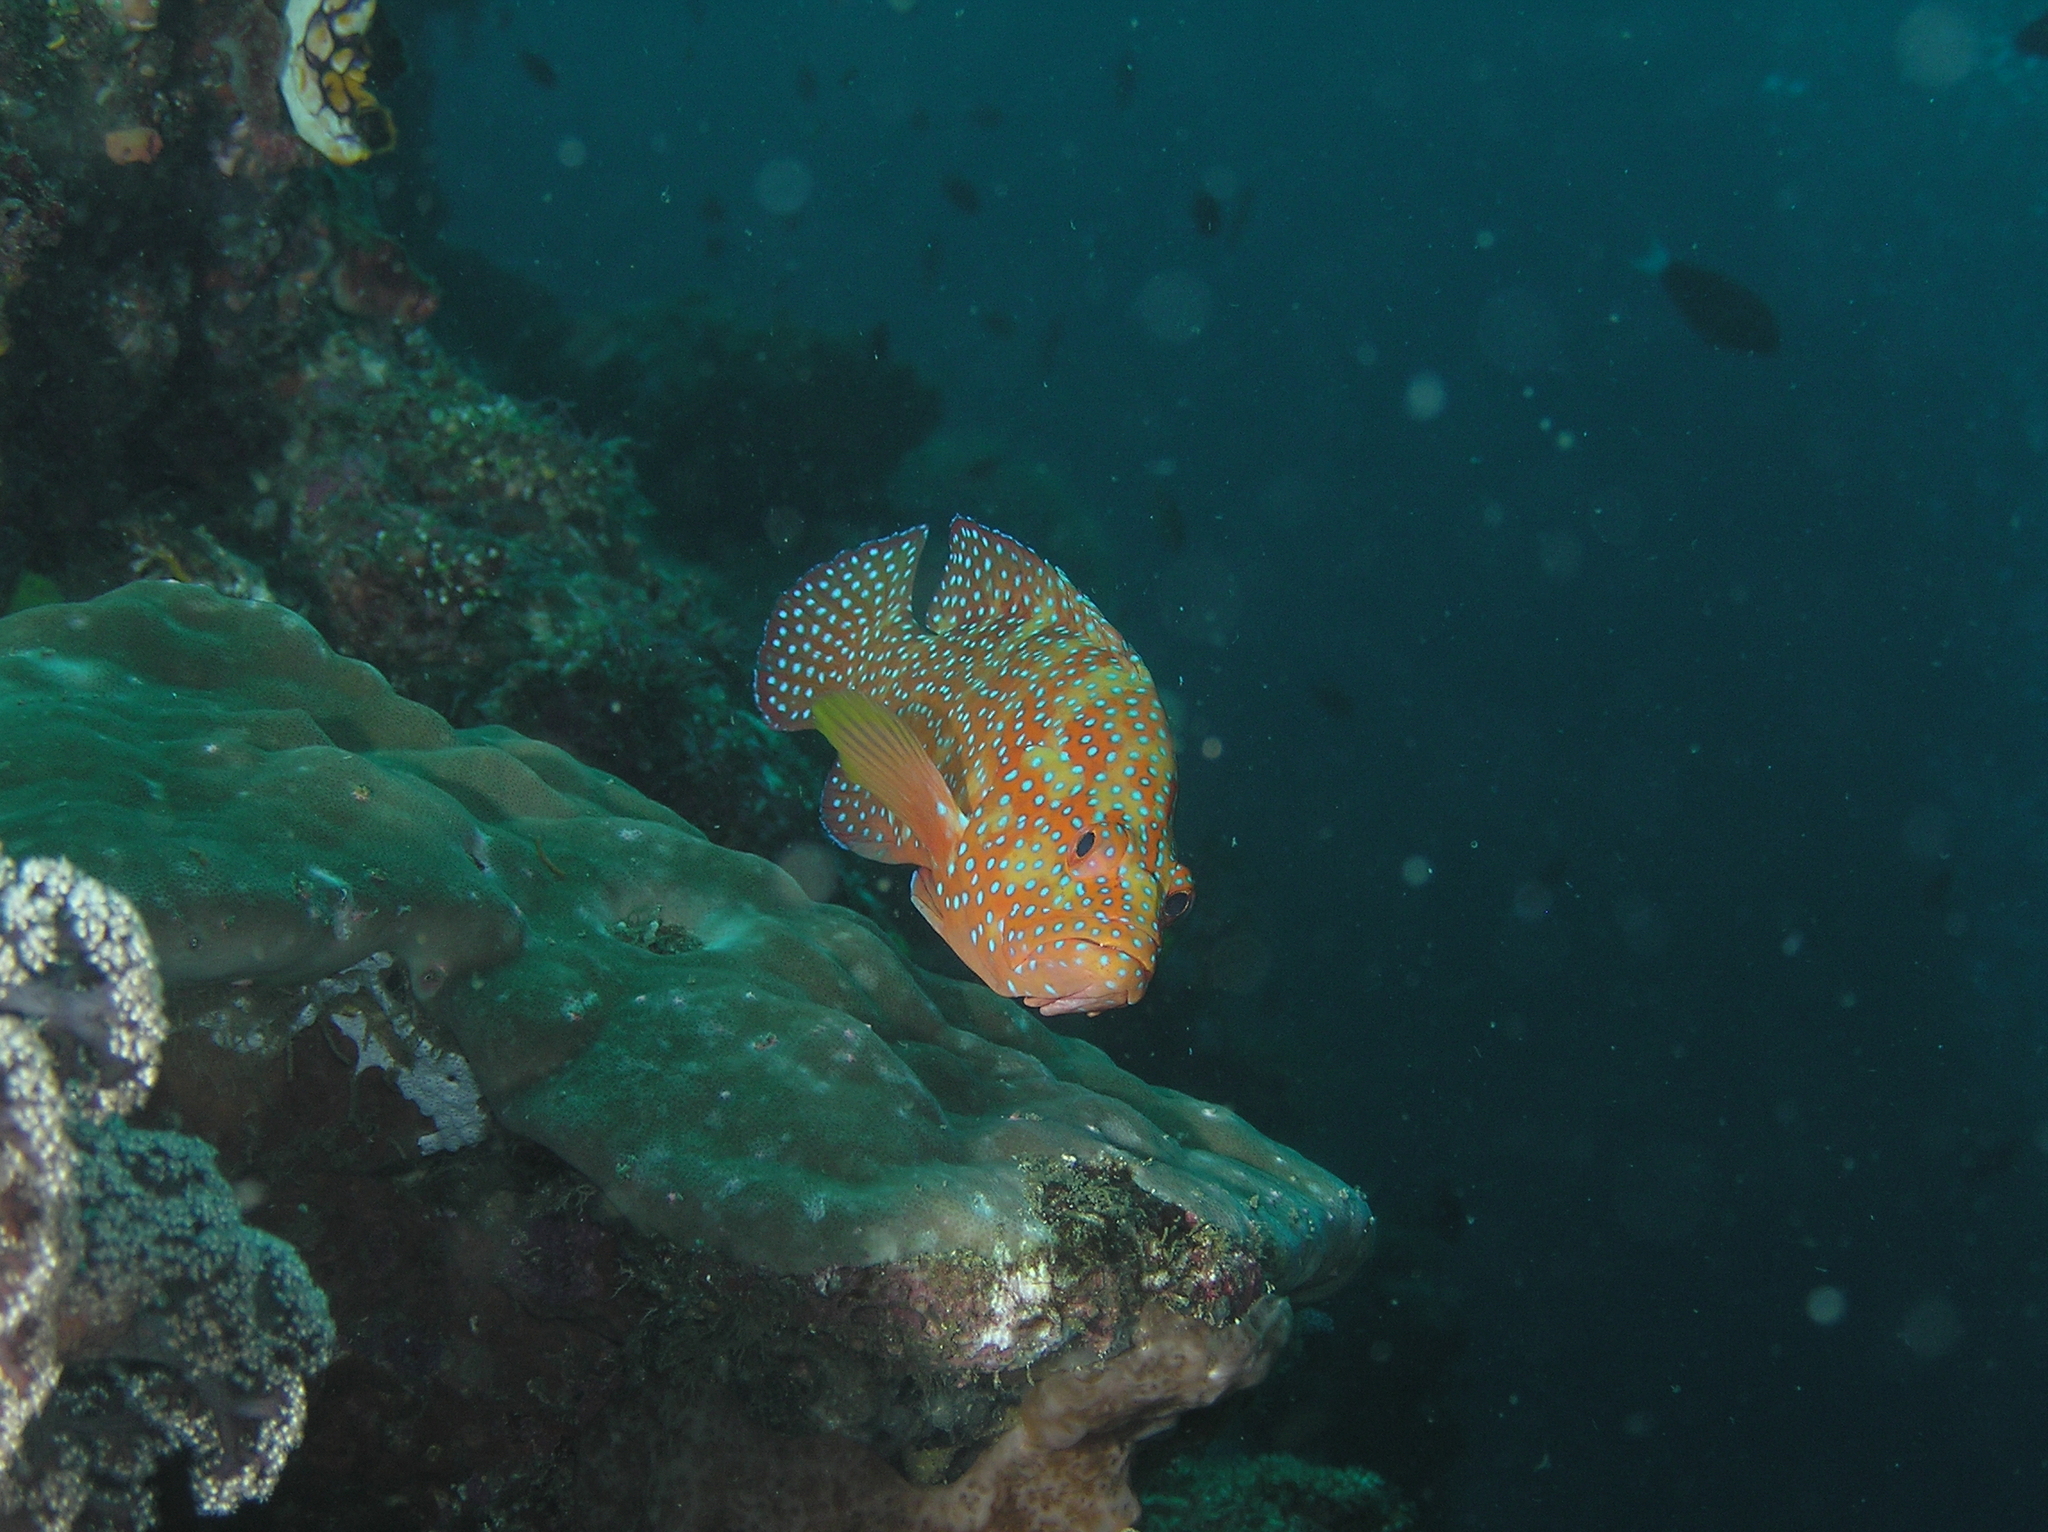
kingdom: Animalia
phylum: Chordata
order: Perciformes
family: Serranidae
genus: Cephalopholis
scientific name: Cephalopholis miniata
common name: Coral hind
